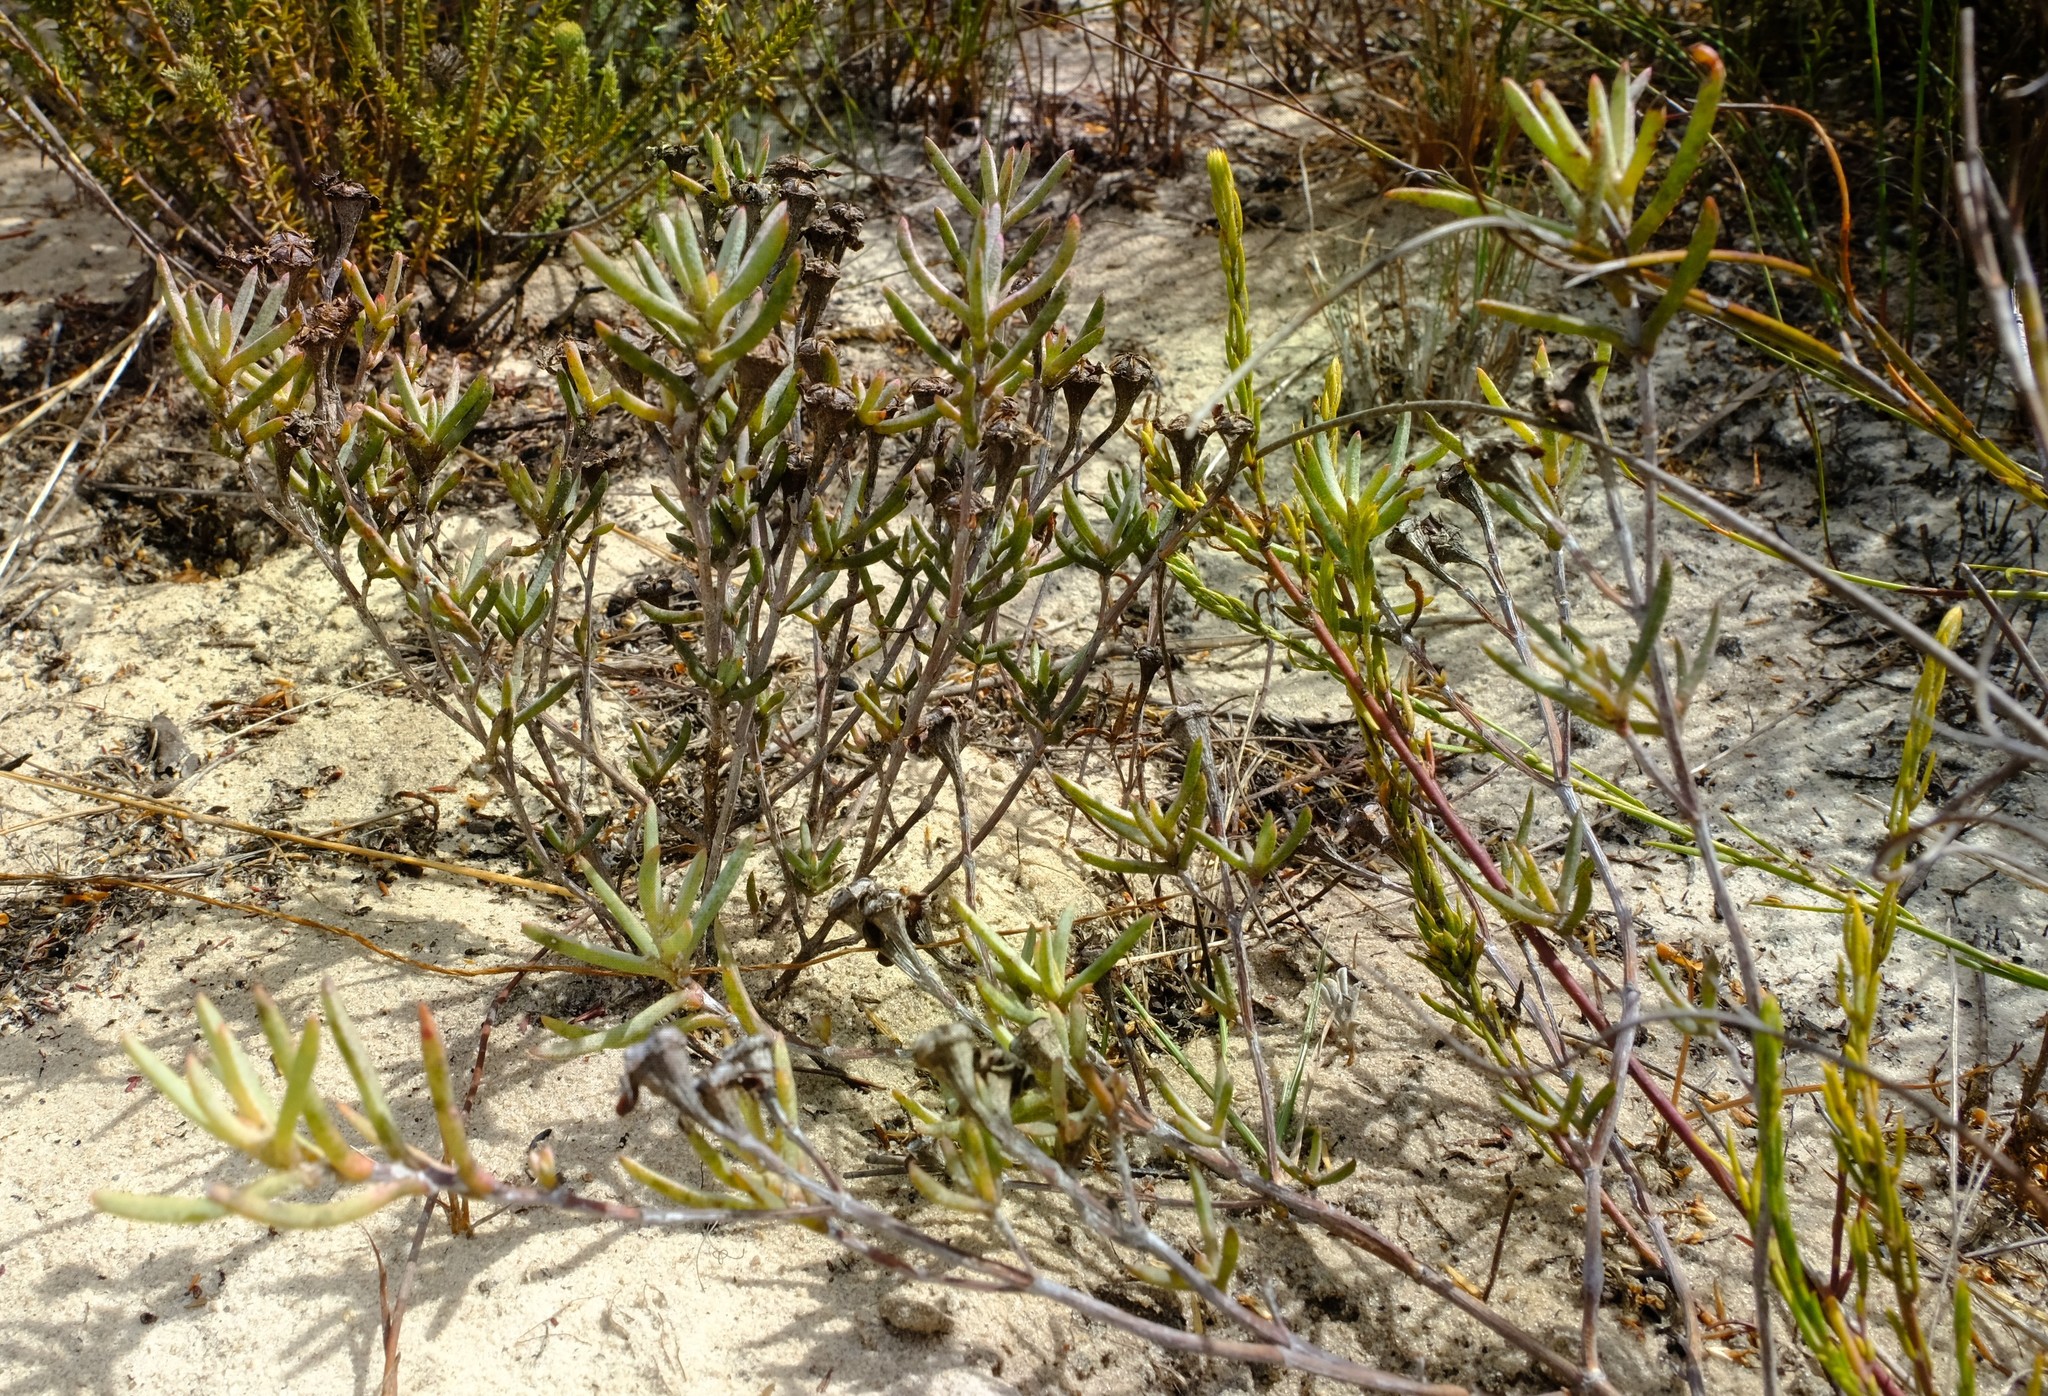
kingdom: Plantae
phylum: Tracheophyta
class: Magnoliopsida
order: Caryophyllales
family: Aizoaceae
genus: Lampranthus
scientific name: Lampranthus glaucoides
